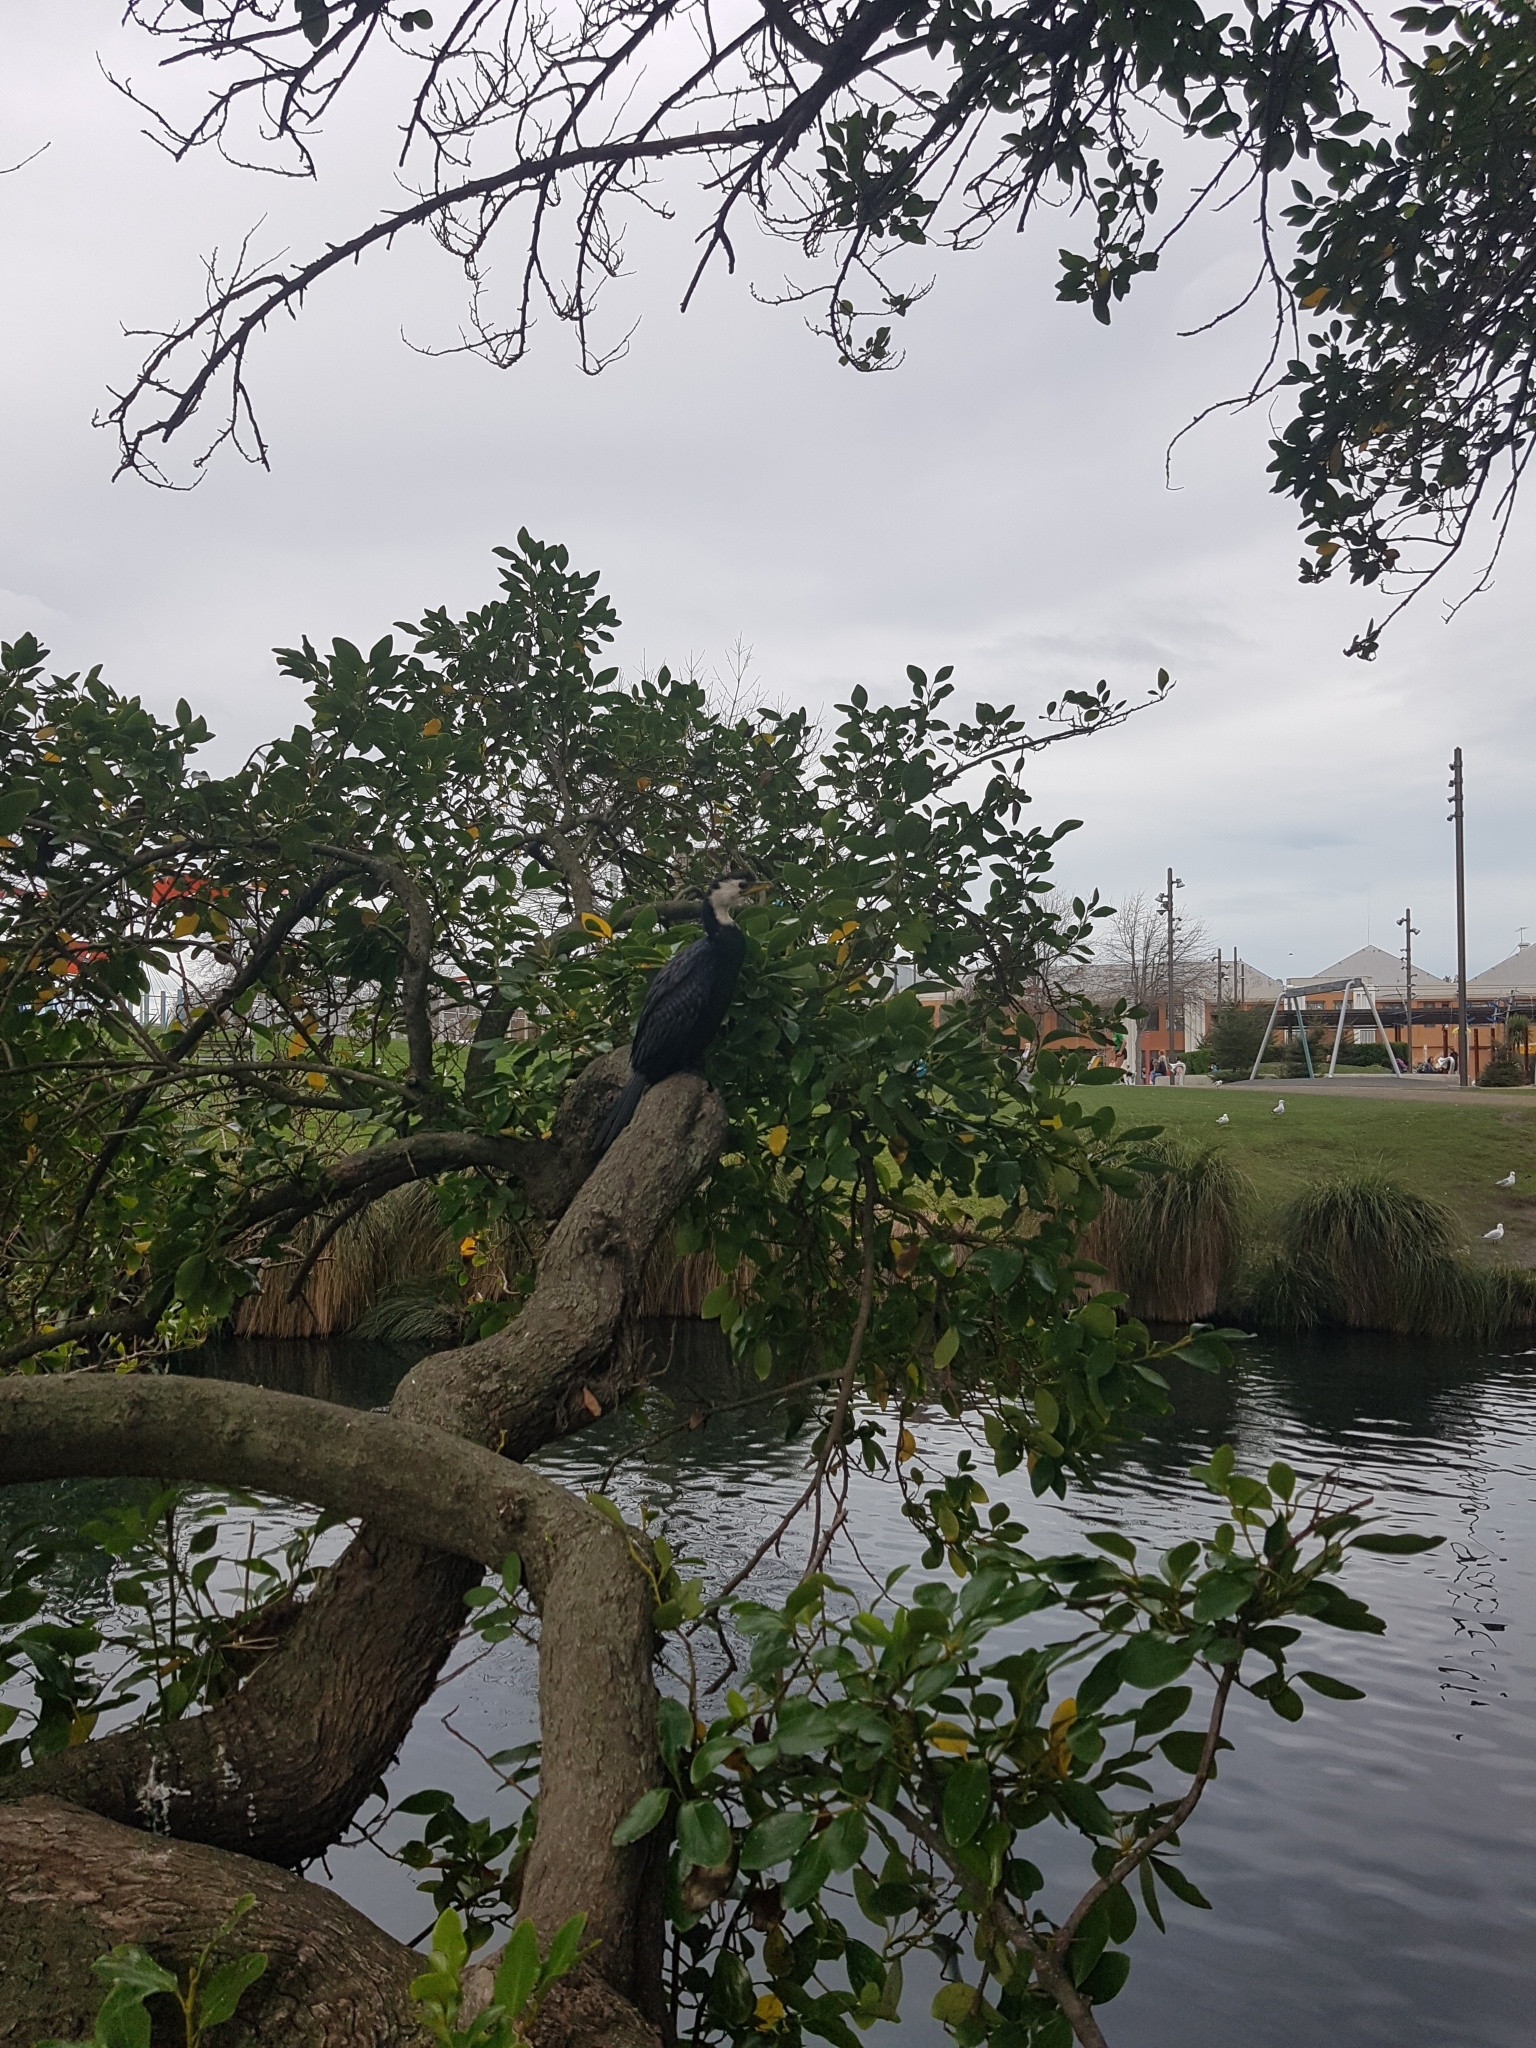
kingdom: Animalia
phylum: Chordata
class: Aves
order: Suliformes
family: Phalacrocoracidae
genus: Microcarbo
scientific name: Microcarbo melanoleucos
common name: Little pied cormorant
